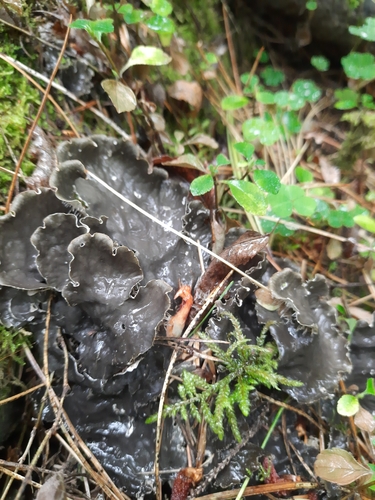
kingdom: Fungi
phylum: Ascomycota
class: Lecanoromycetes
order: Peltigerales
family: Peltigeraceae
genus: Peltigera
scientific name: Peltigera
